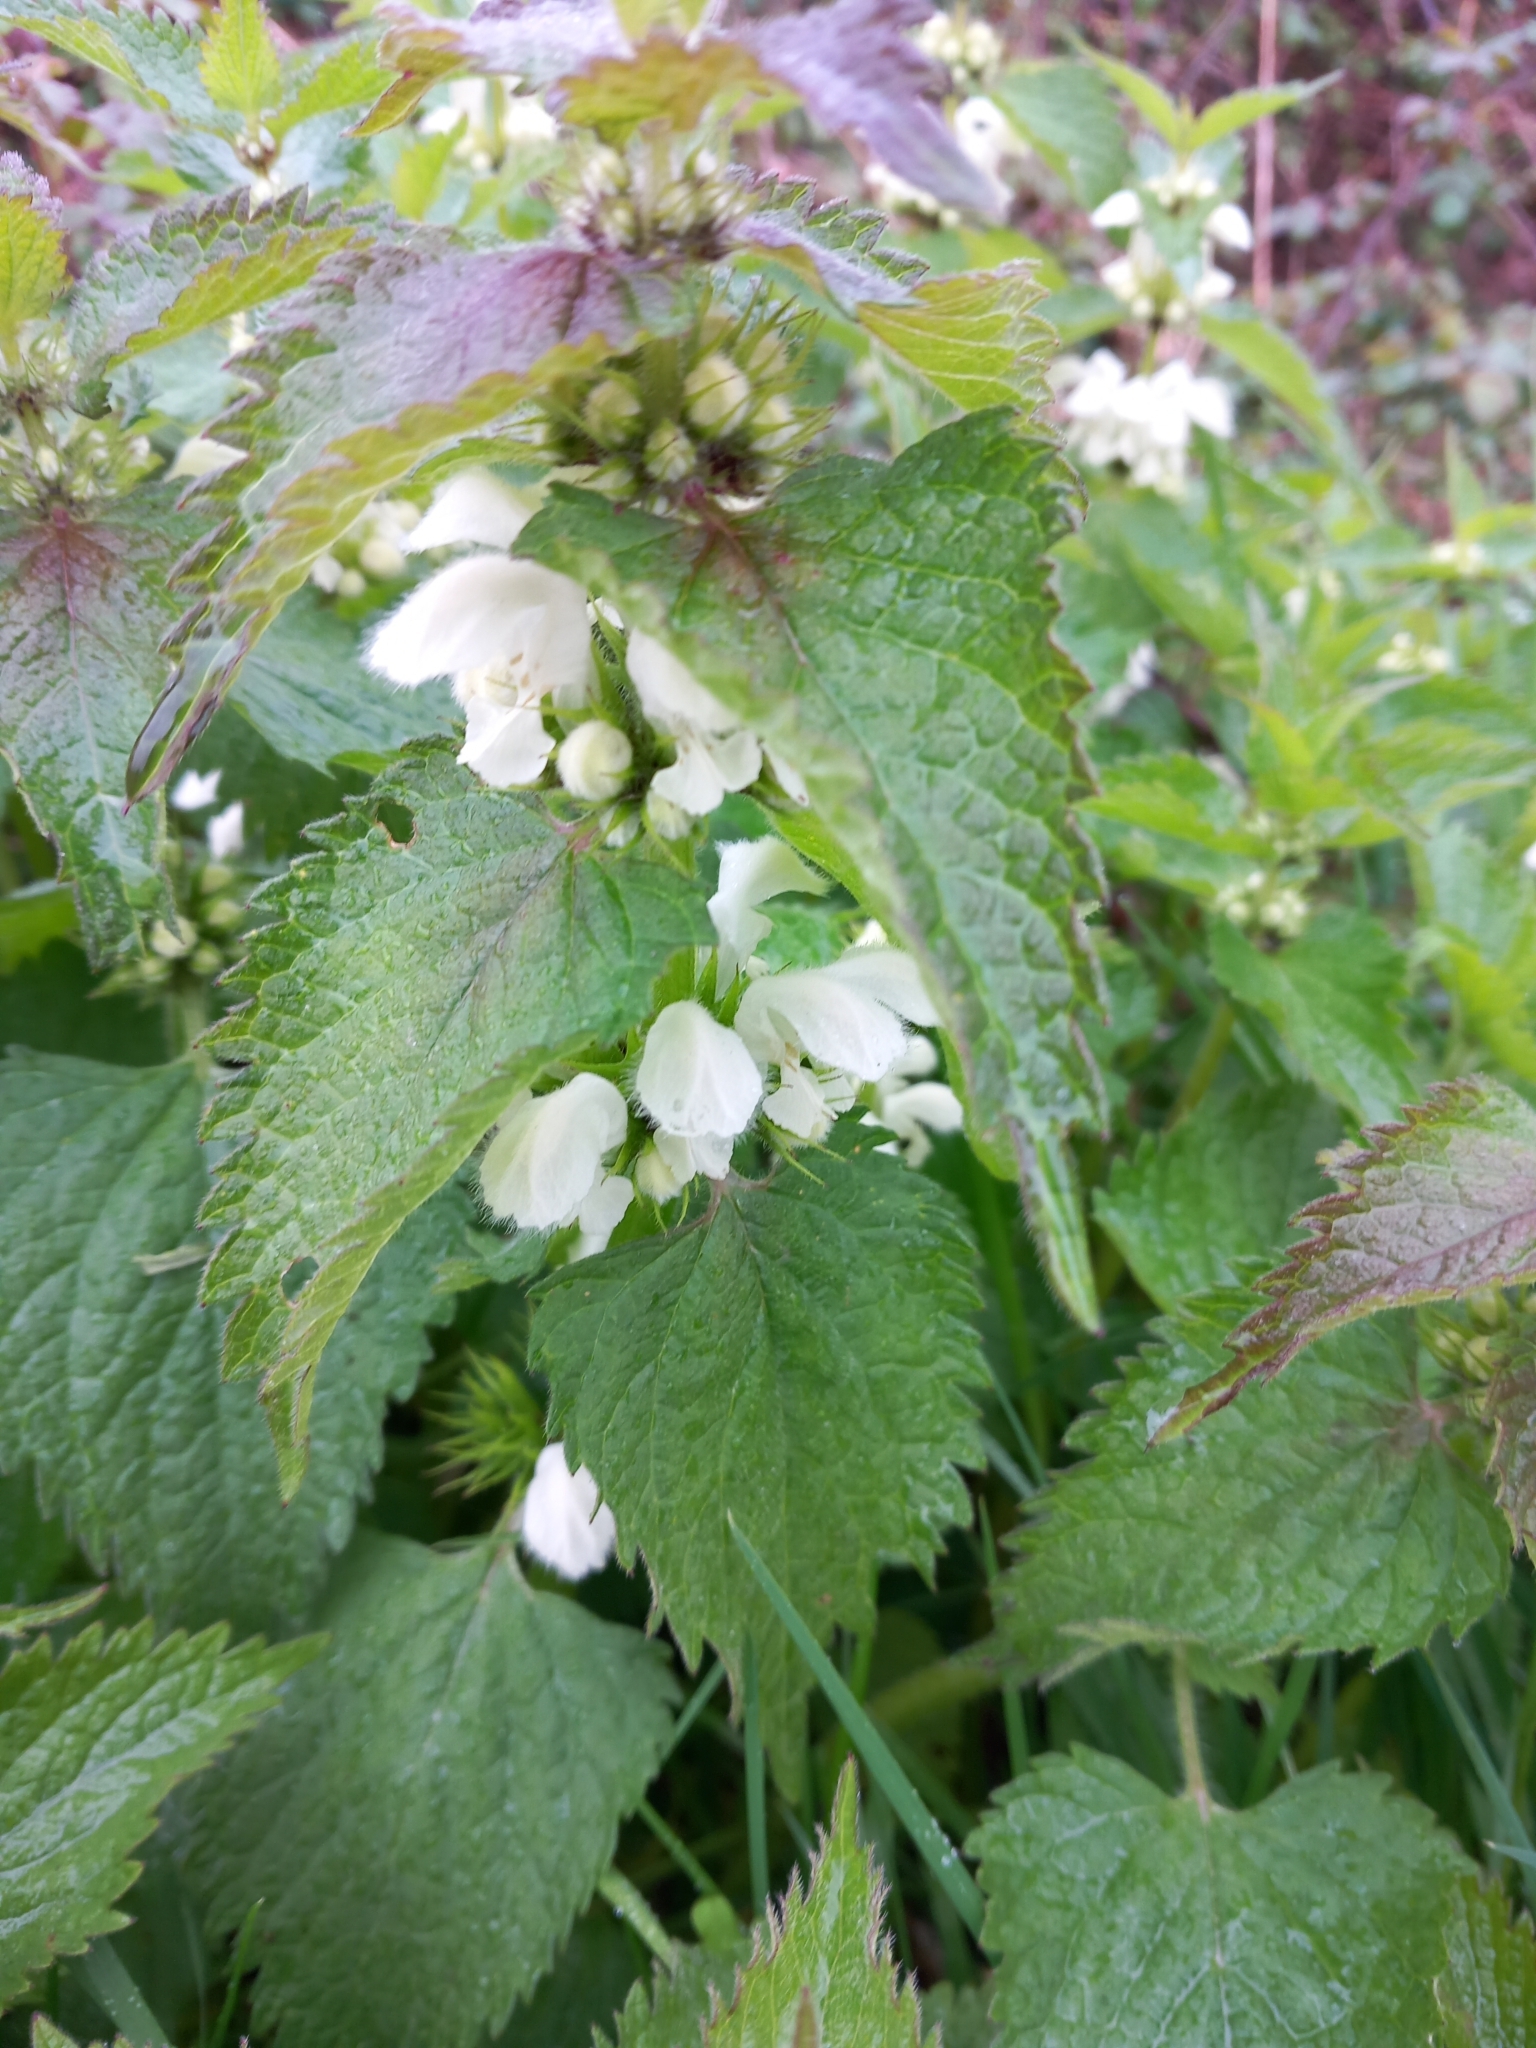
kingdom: Plantae
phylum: Tracheophyta
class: Magnoliopsida
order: Lamiales
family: Lamiaceae
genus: Lamium
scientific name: Lamium album
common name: White dead-nettle
